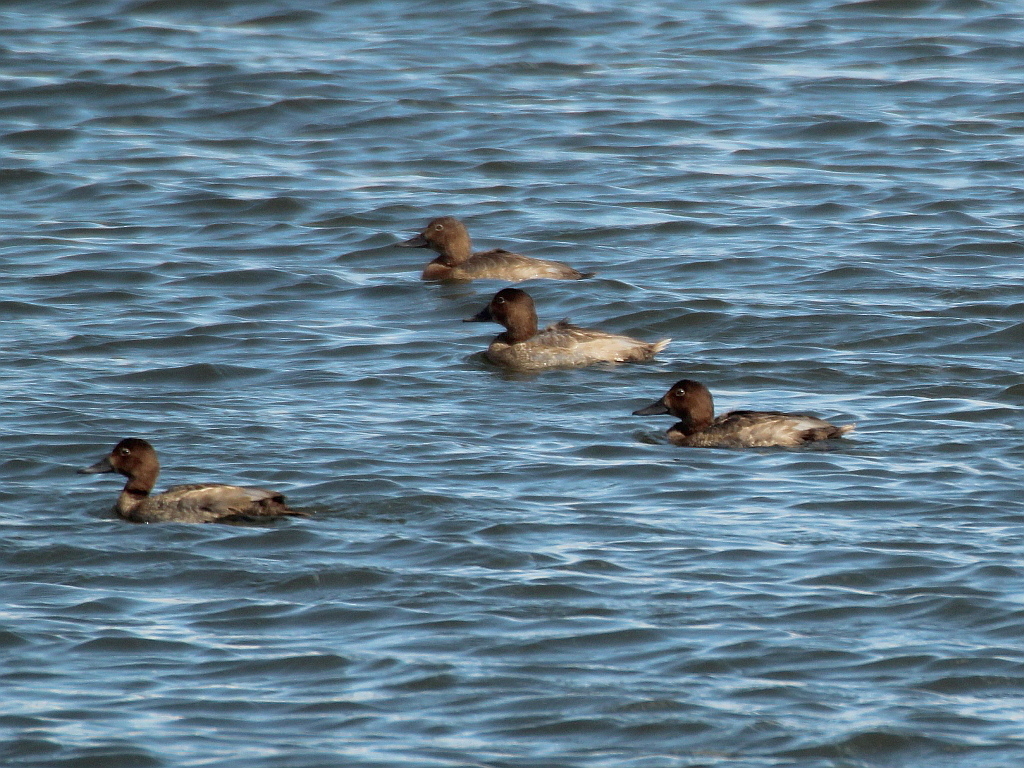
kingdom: Animalia
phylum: Chordata
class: Aves
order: Anseriformes
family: Anatidae
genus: Aythya
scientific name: Aythya ferina
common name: Common pochard
